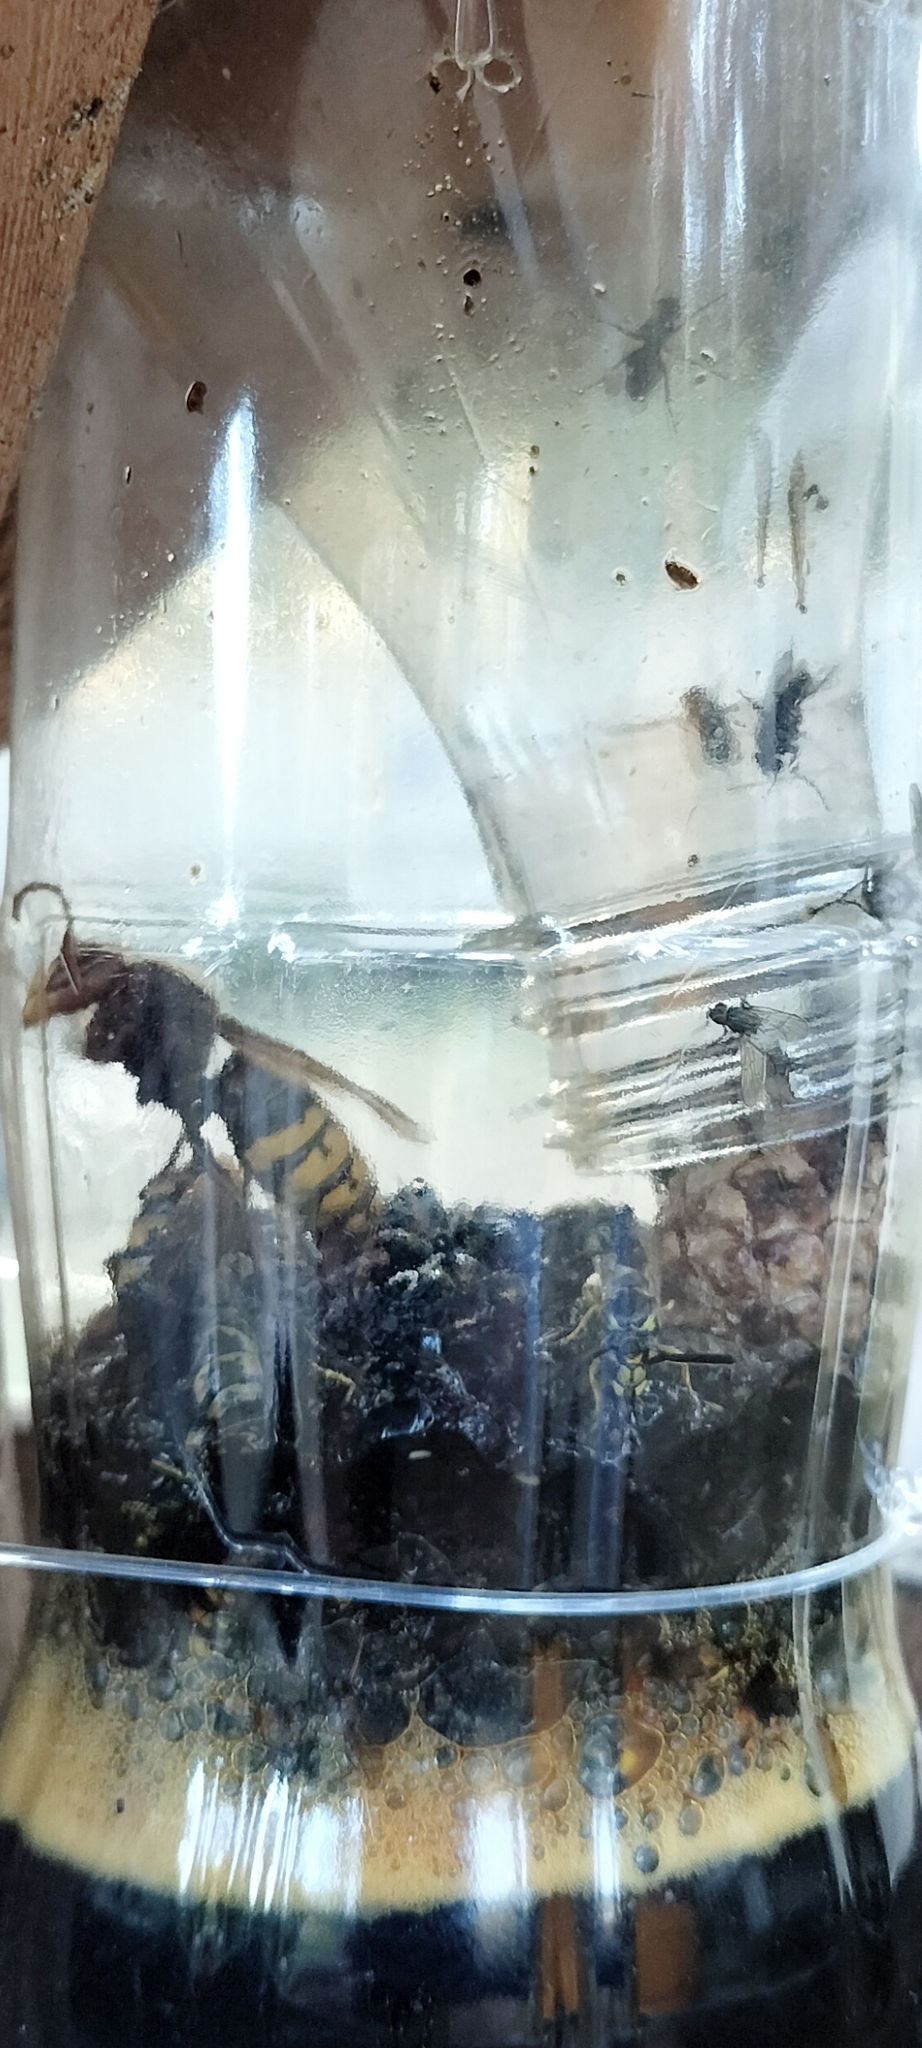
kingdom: Animalia
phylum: Arthropoda
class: Insecta
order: Hymenoptera
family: Vespidae
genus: Vespa
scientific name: Vespa crabro
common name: Hornet
